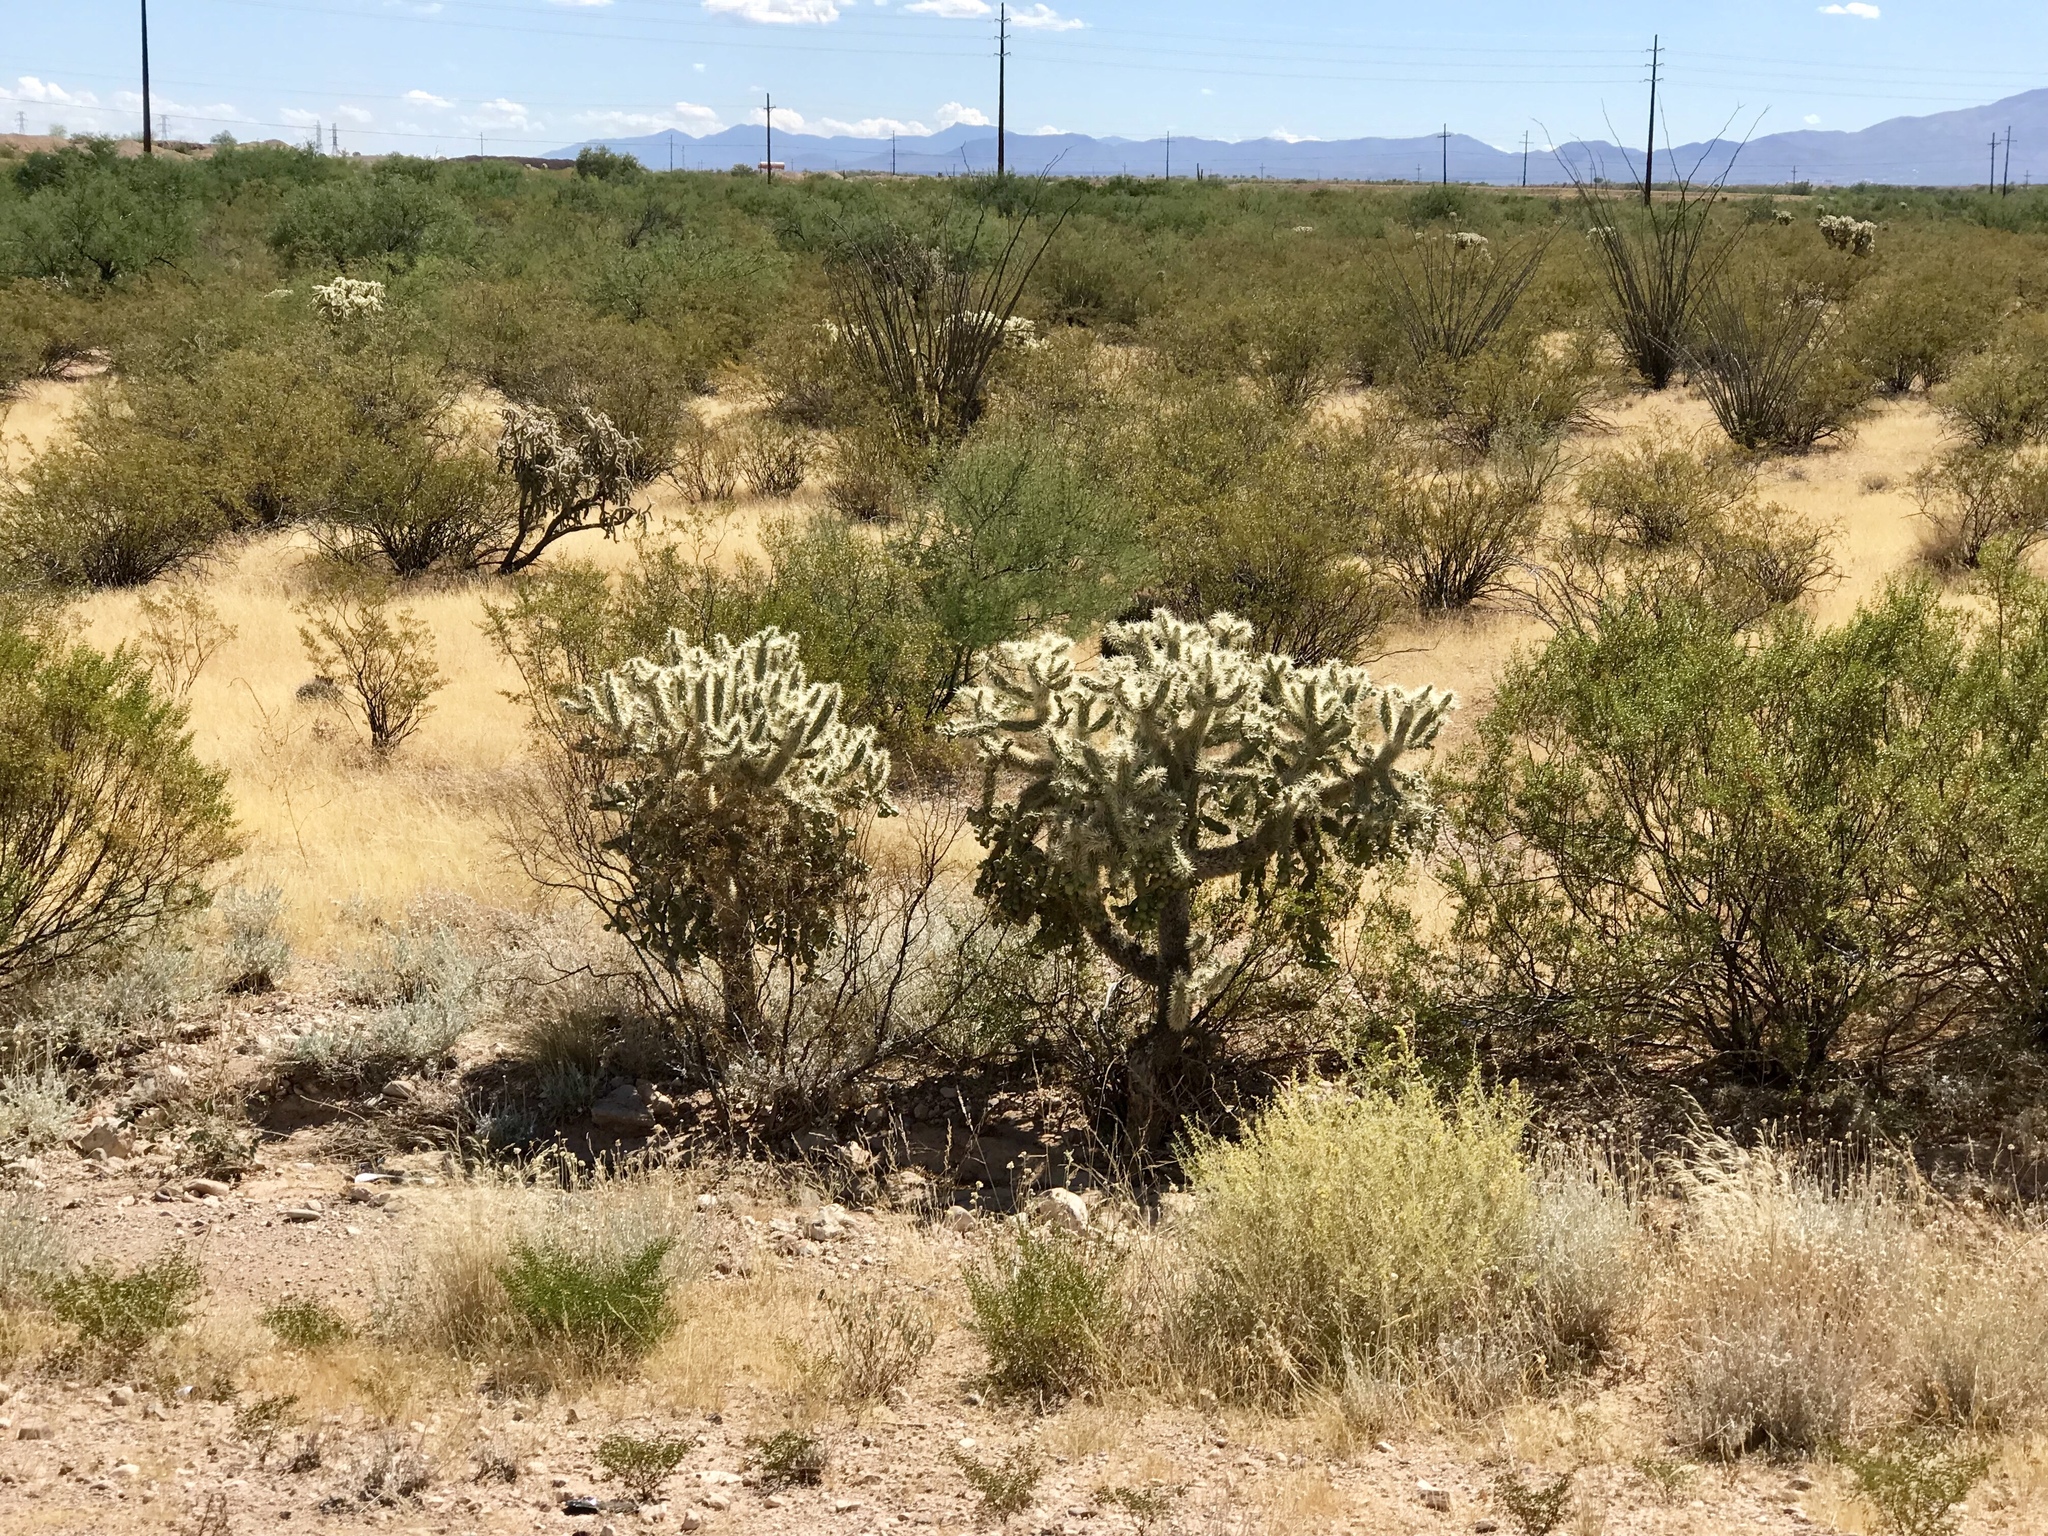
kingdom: Plantae
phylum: Tracheophyta
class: Magnoliopsida
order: Caryophyllales
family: Cactaceae
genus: Cylindropuntia
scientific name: Cylindropuntia fulgida
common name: Jumping cholla
